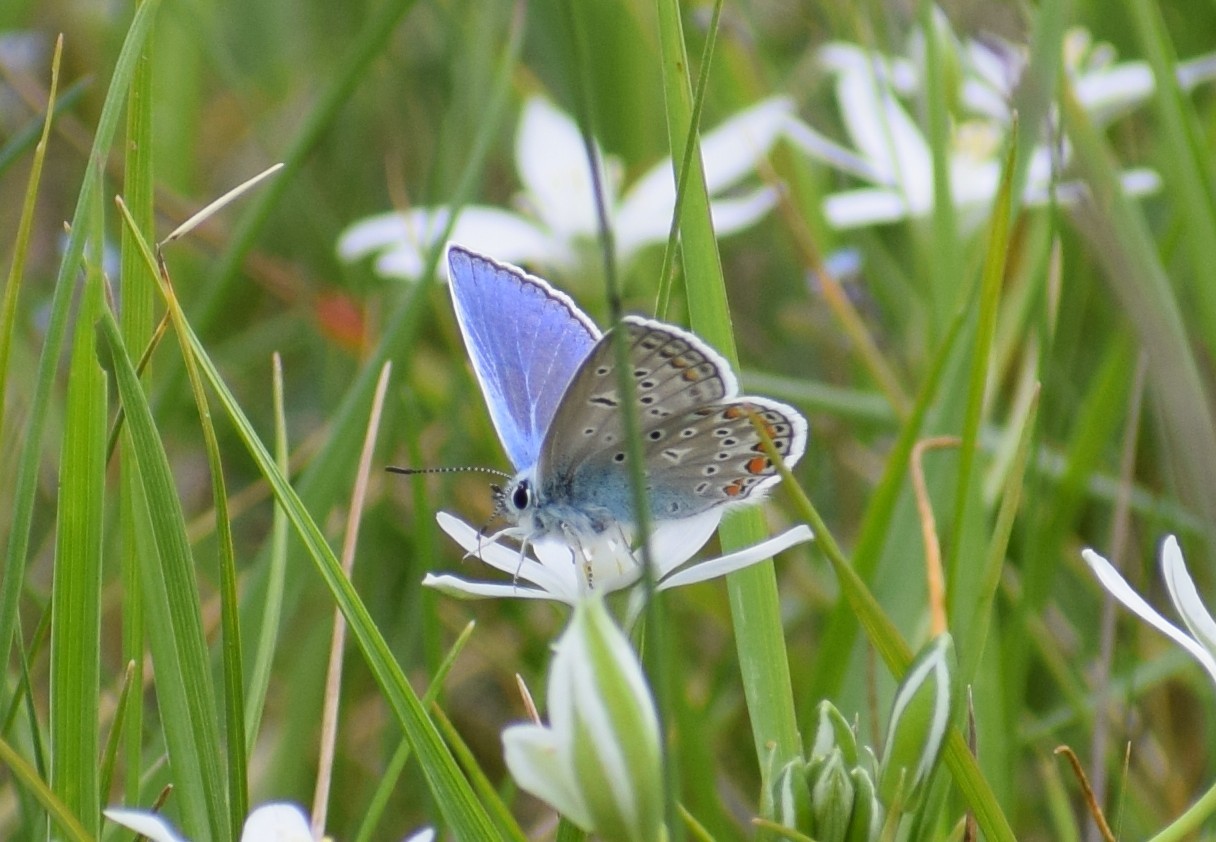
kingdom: Animalia
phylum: Arthropoda
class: Insecta
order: Lepidoptera
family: Lycaenidae
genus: Polyommatus
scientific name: Polyommatus icarus
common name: Common blue
